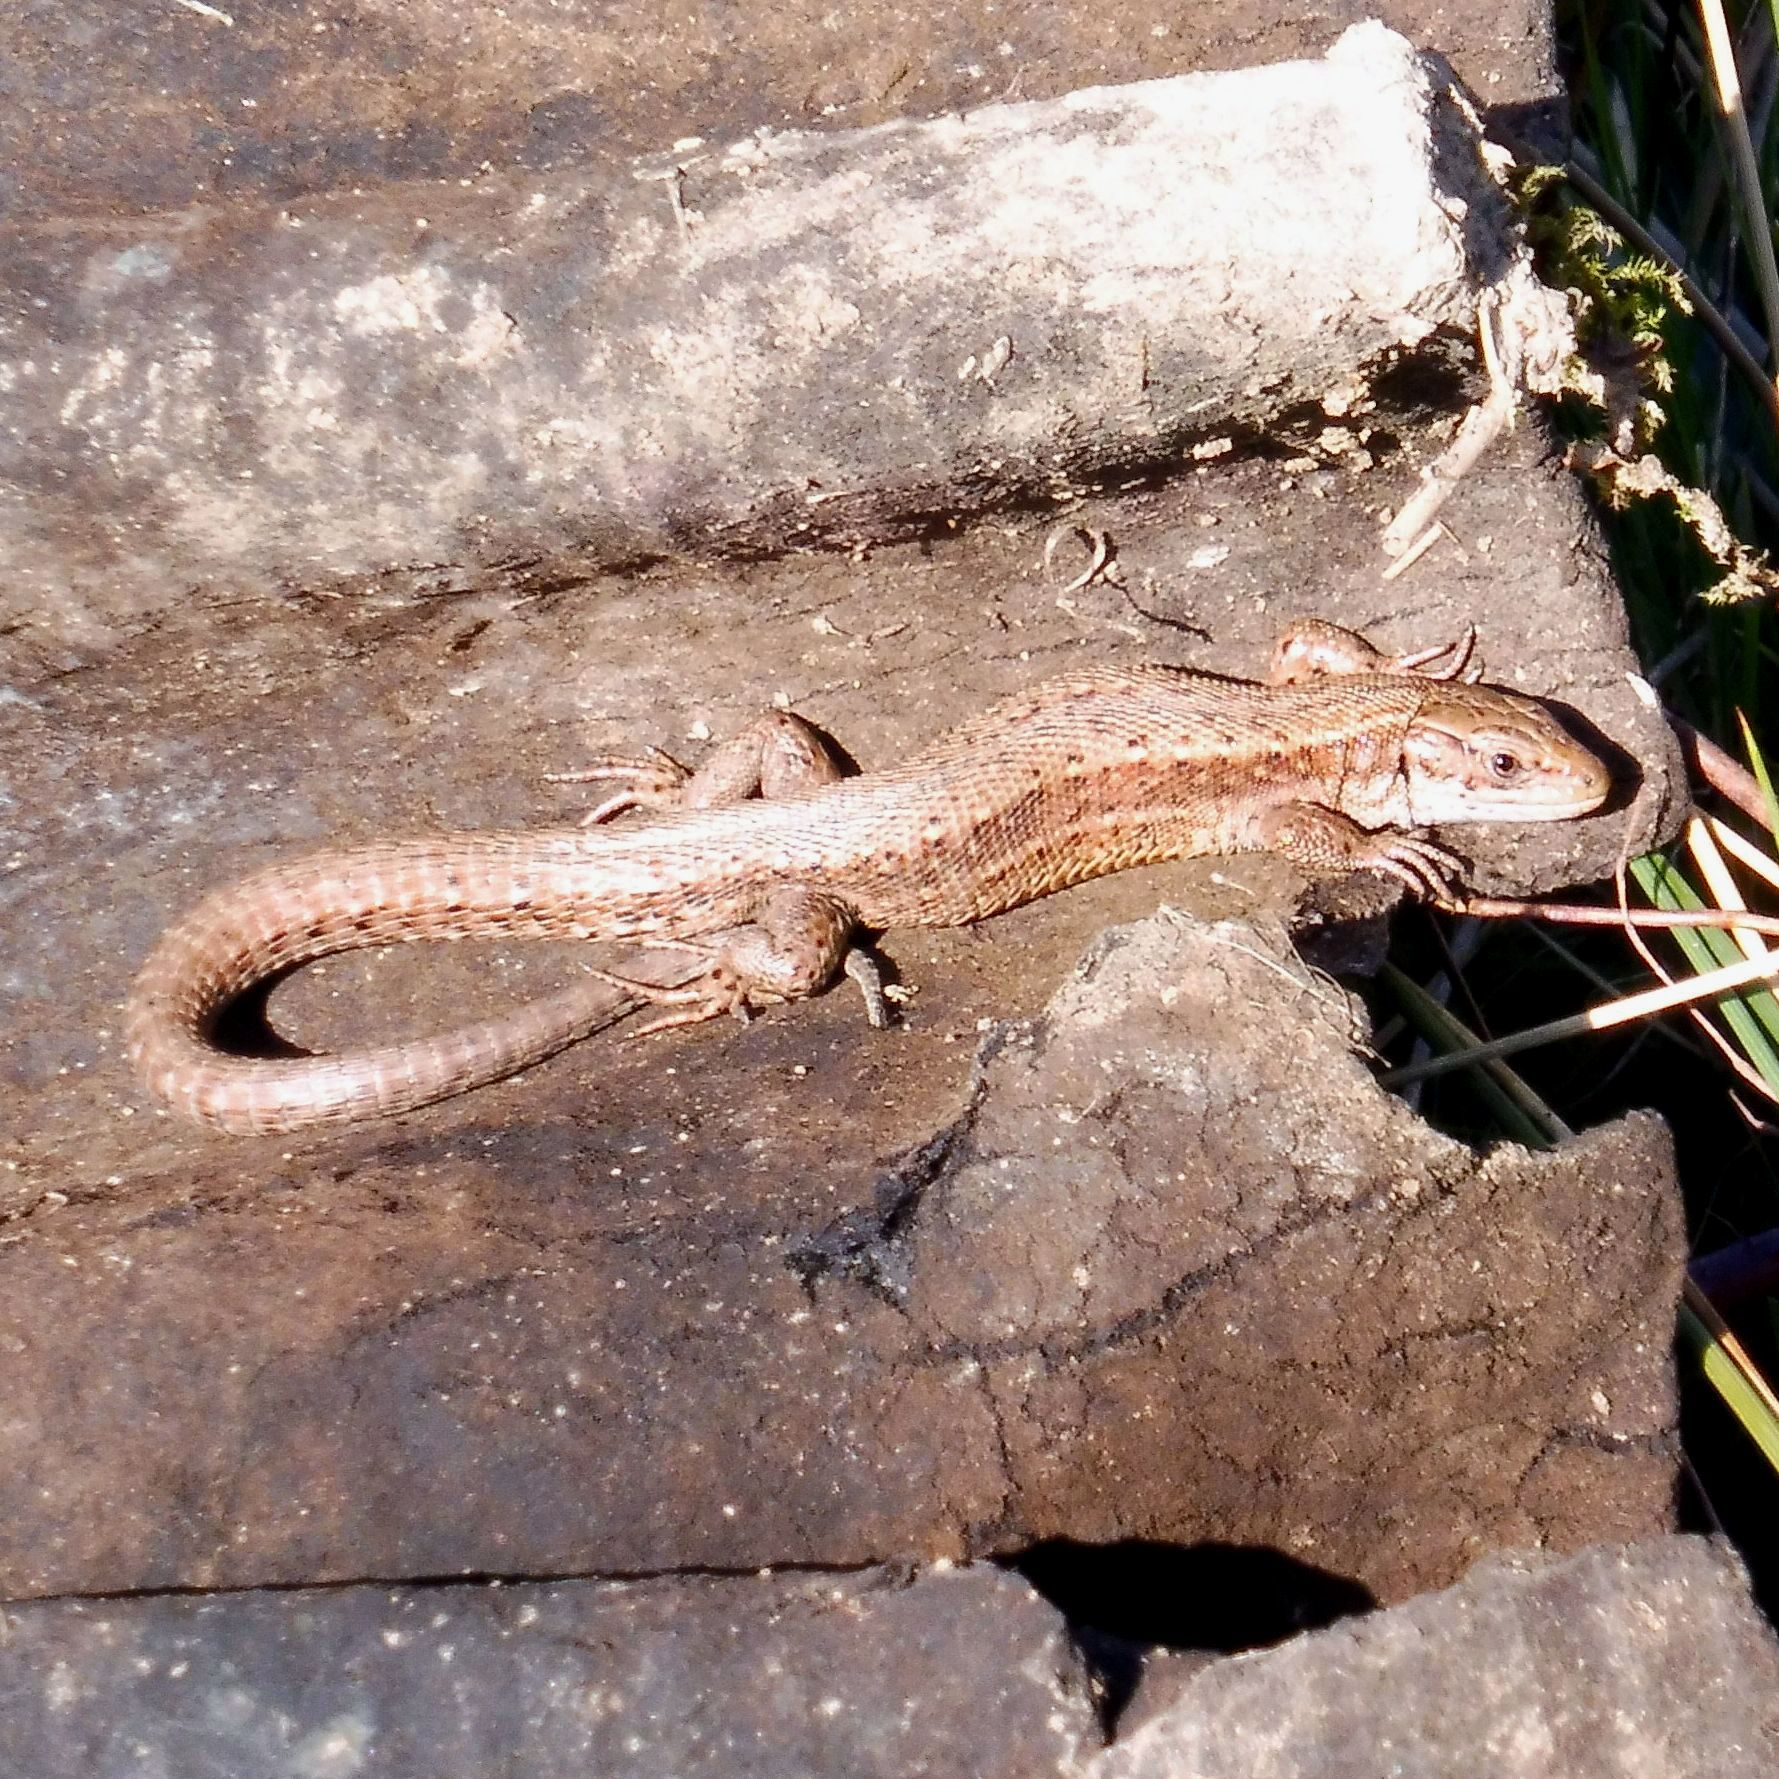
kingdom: Animalia
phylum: Chordata
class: Squamata
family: Lacertidae
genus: Zootoca
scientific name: Zootoca vivipara
